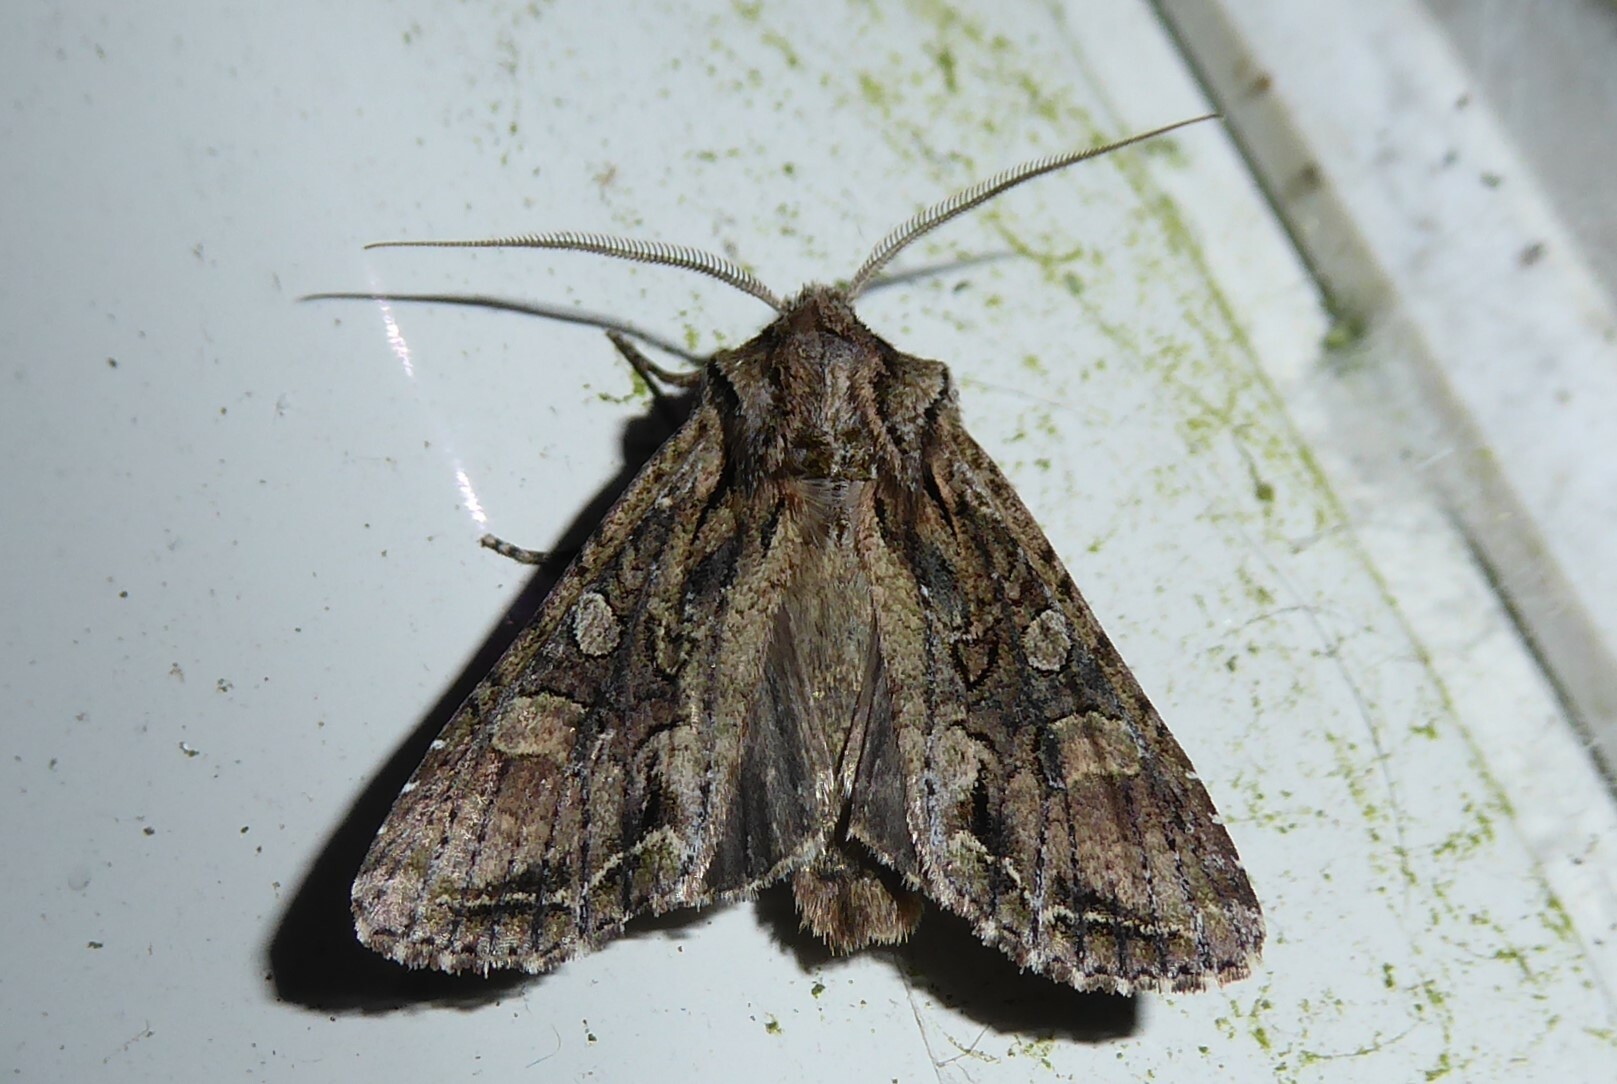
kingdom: Animalia
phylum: Arthropoda
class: Insecta
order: Lepidoptera
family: Noctuidae
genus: Ichneutica
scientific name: Ichneutica mutans
